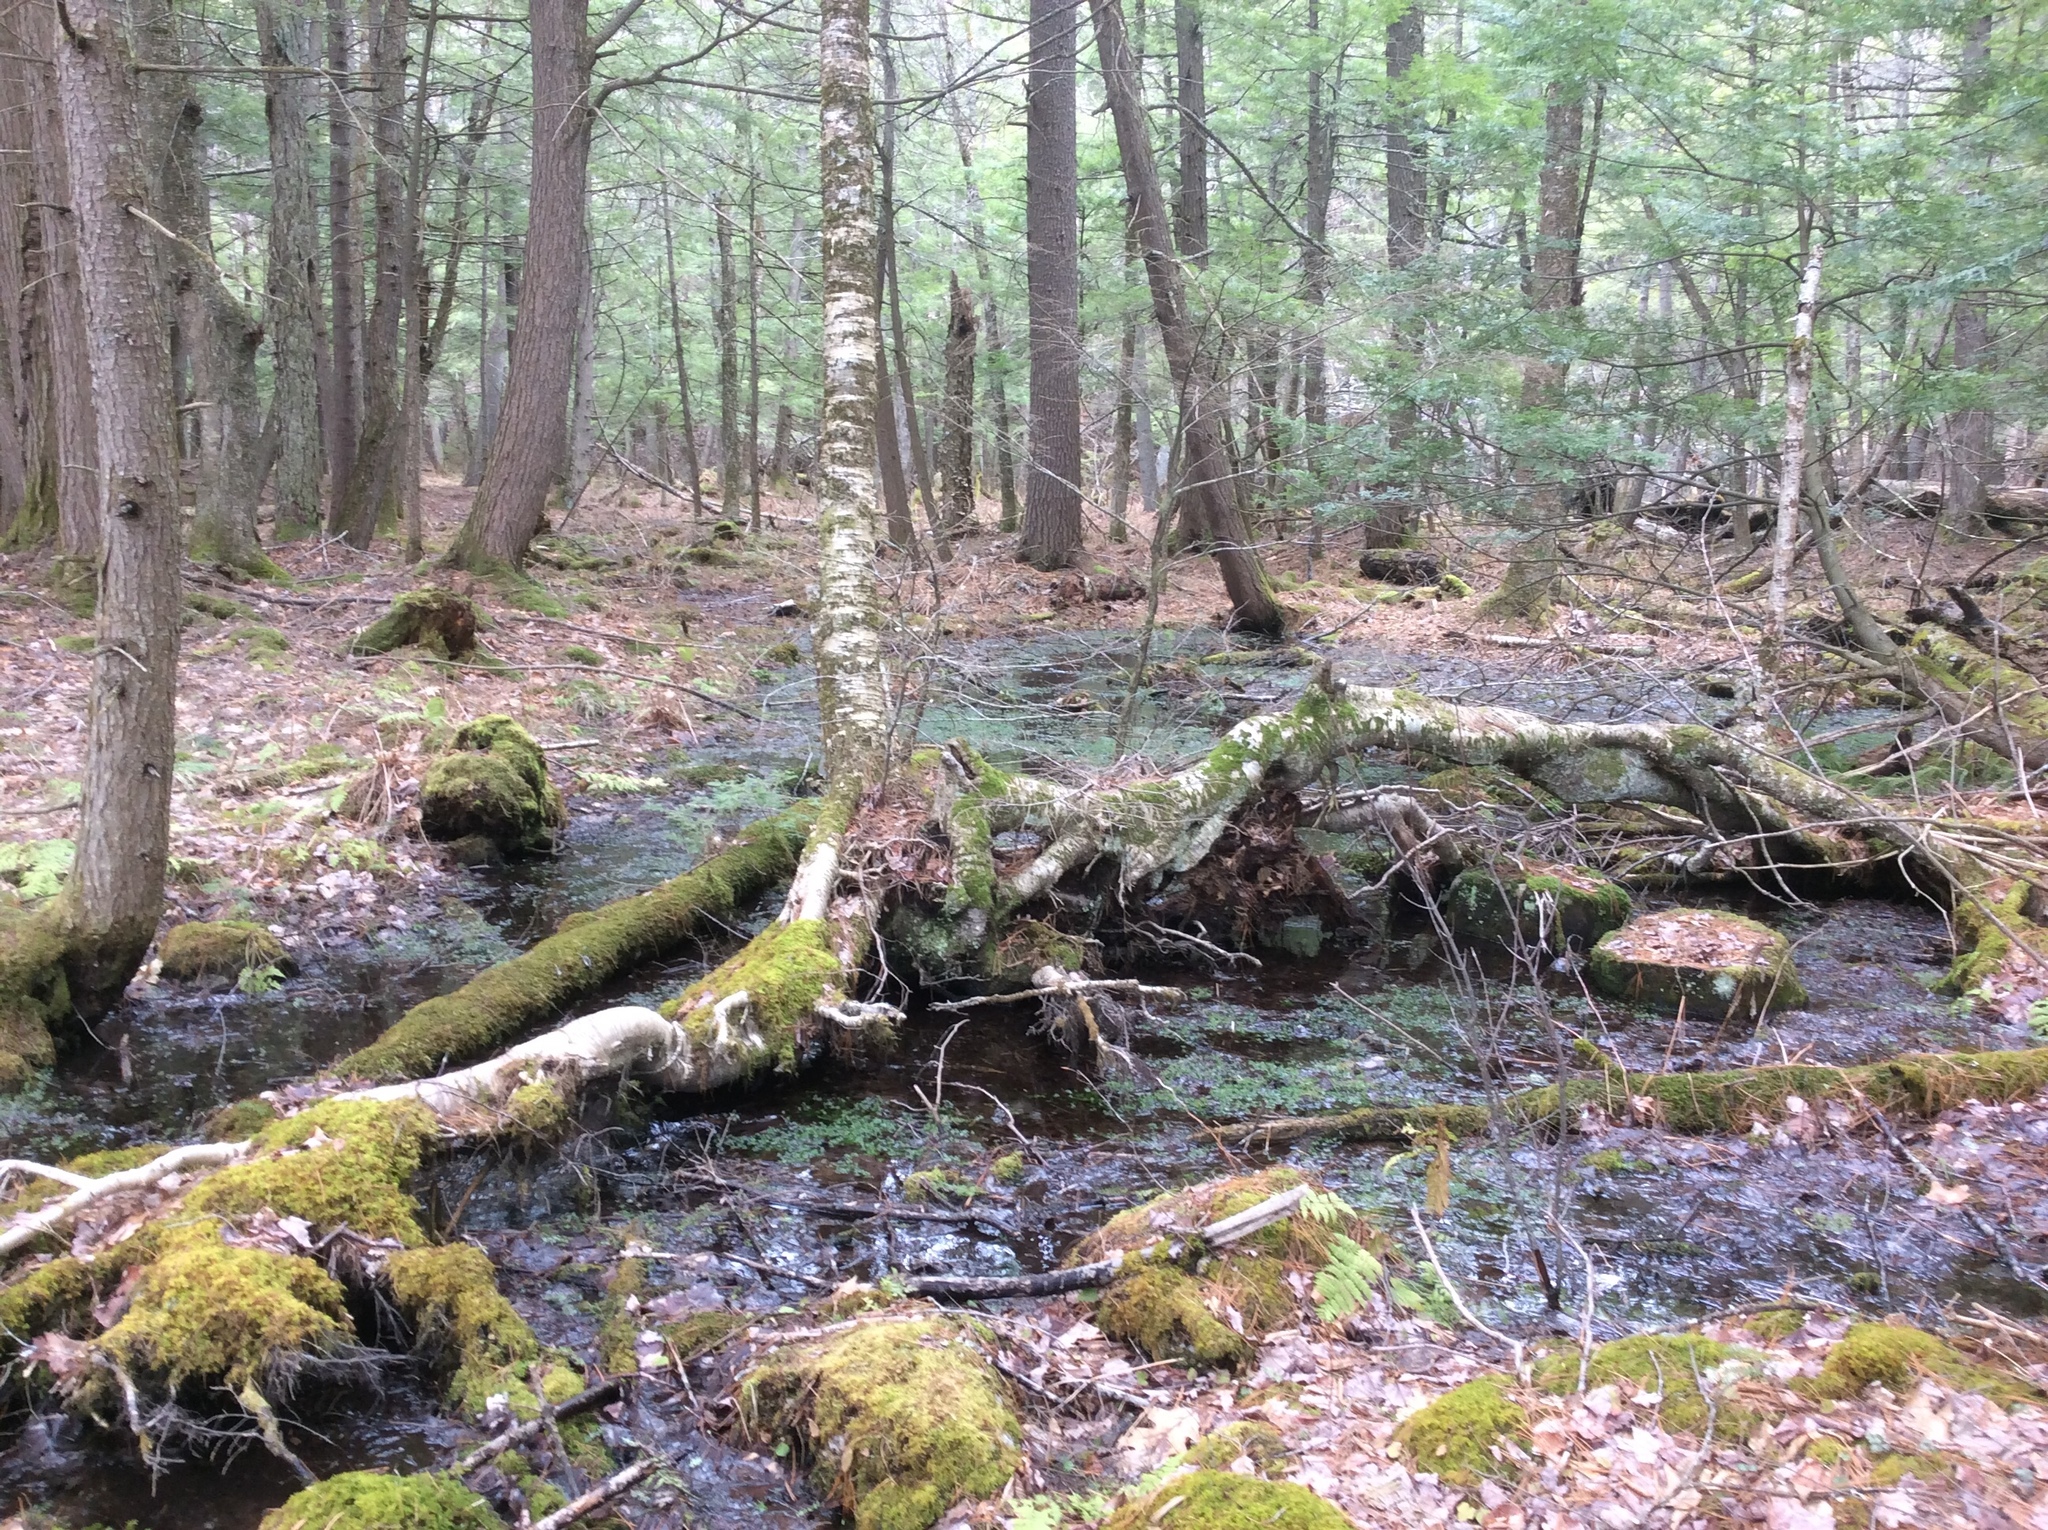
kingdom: Plantae
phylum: Tracheophyta
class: Magnoliopsida
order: Fagales
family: Betulaceae
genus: Betula
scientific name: Betula alleghaniensis
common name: Yellow birch
